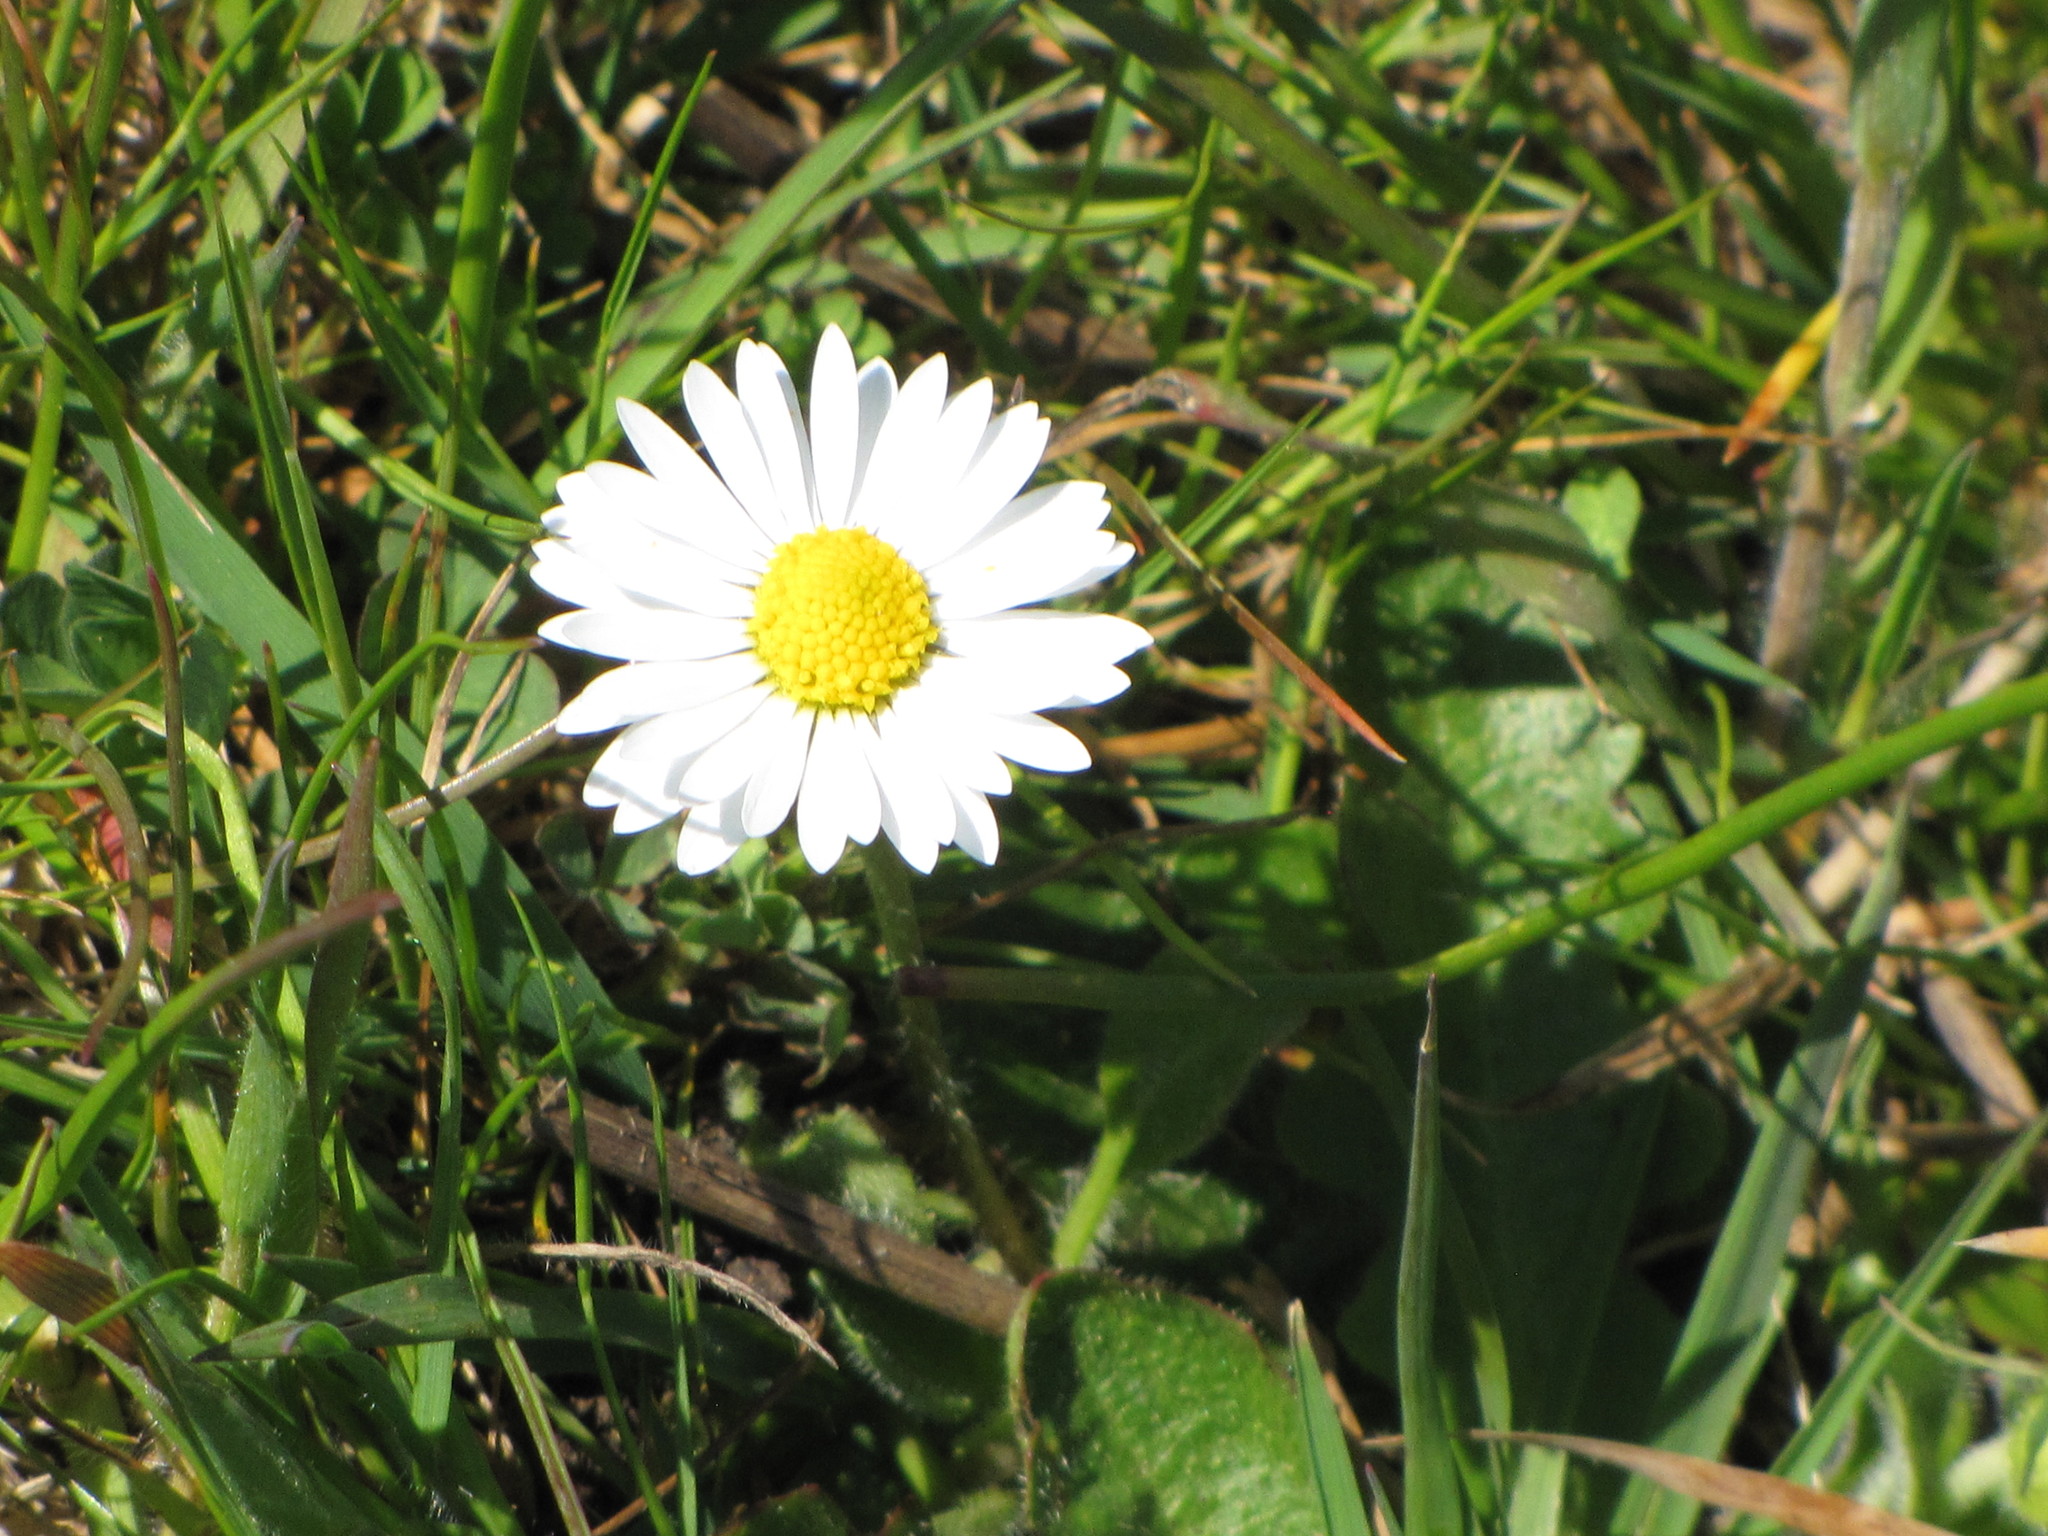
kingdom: Plantae
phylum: Tracheophyta
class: Magnoliopsida
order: Asterales
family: Asteraceae
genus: Bellis
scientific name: Bellis perennis
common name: Lawndaisy
